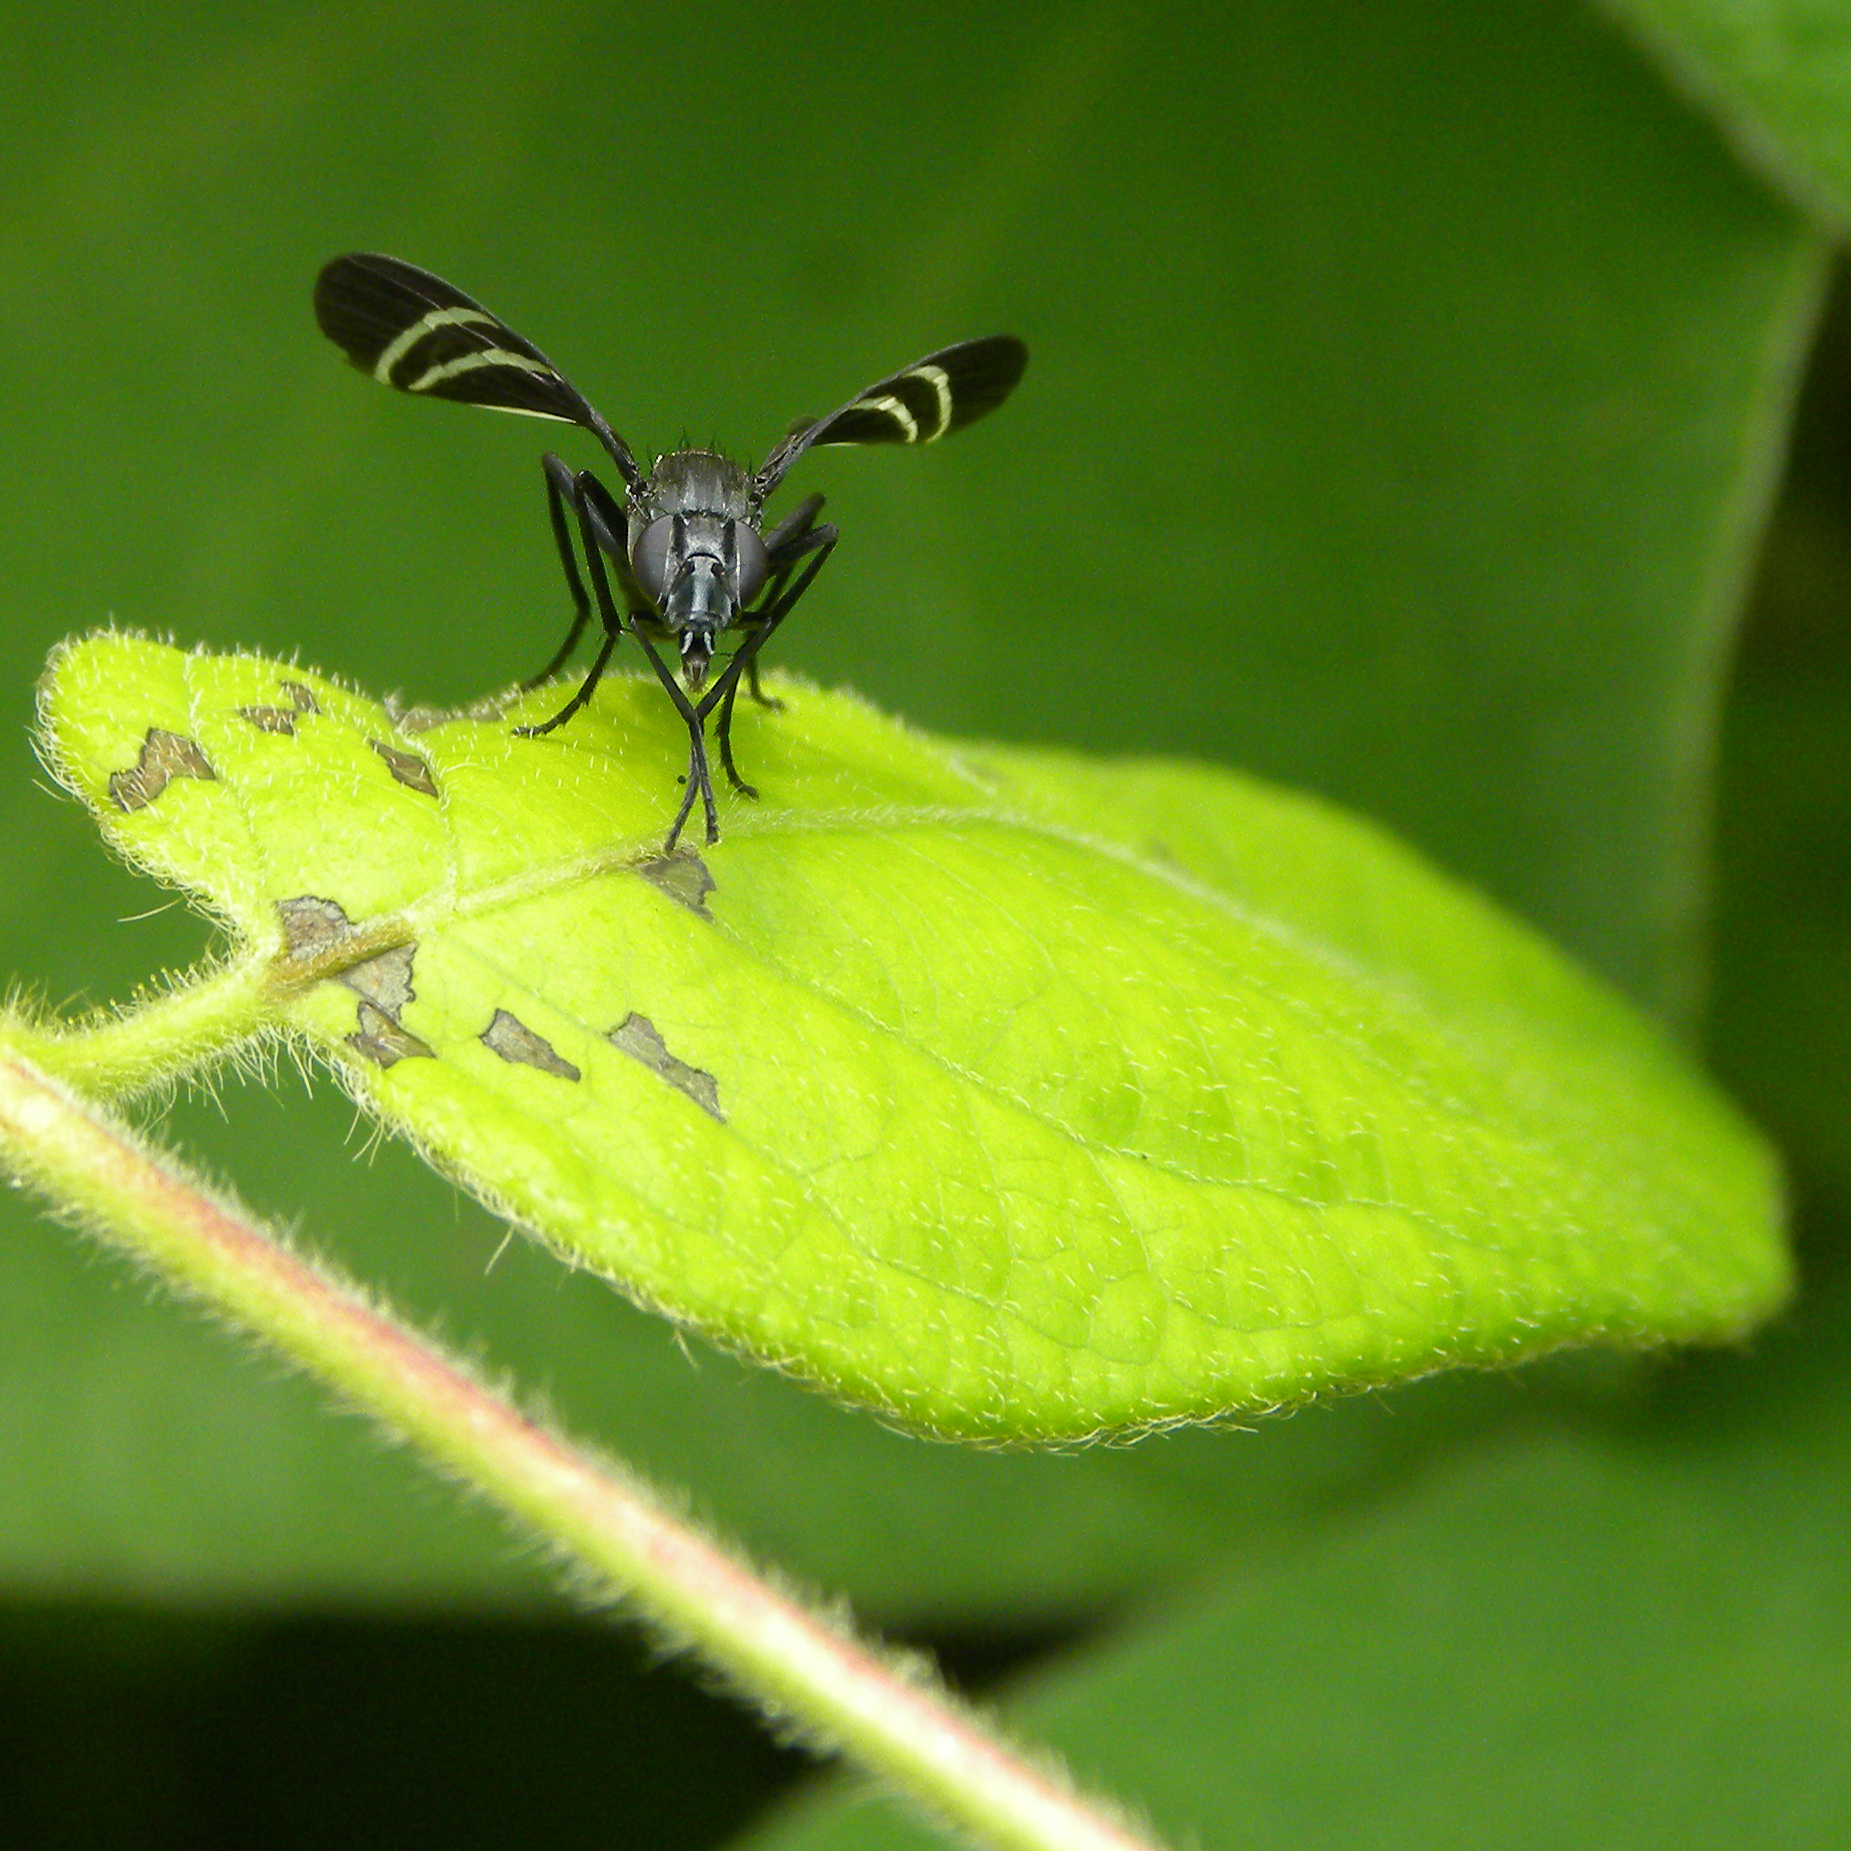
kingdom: Animalia
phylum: Arthropoda
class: Insecta
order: Diptera
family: Ulidiidae
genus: Tritoxa
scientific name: Tritoxa flexa
